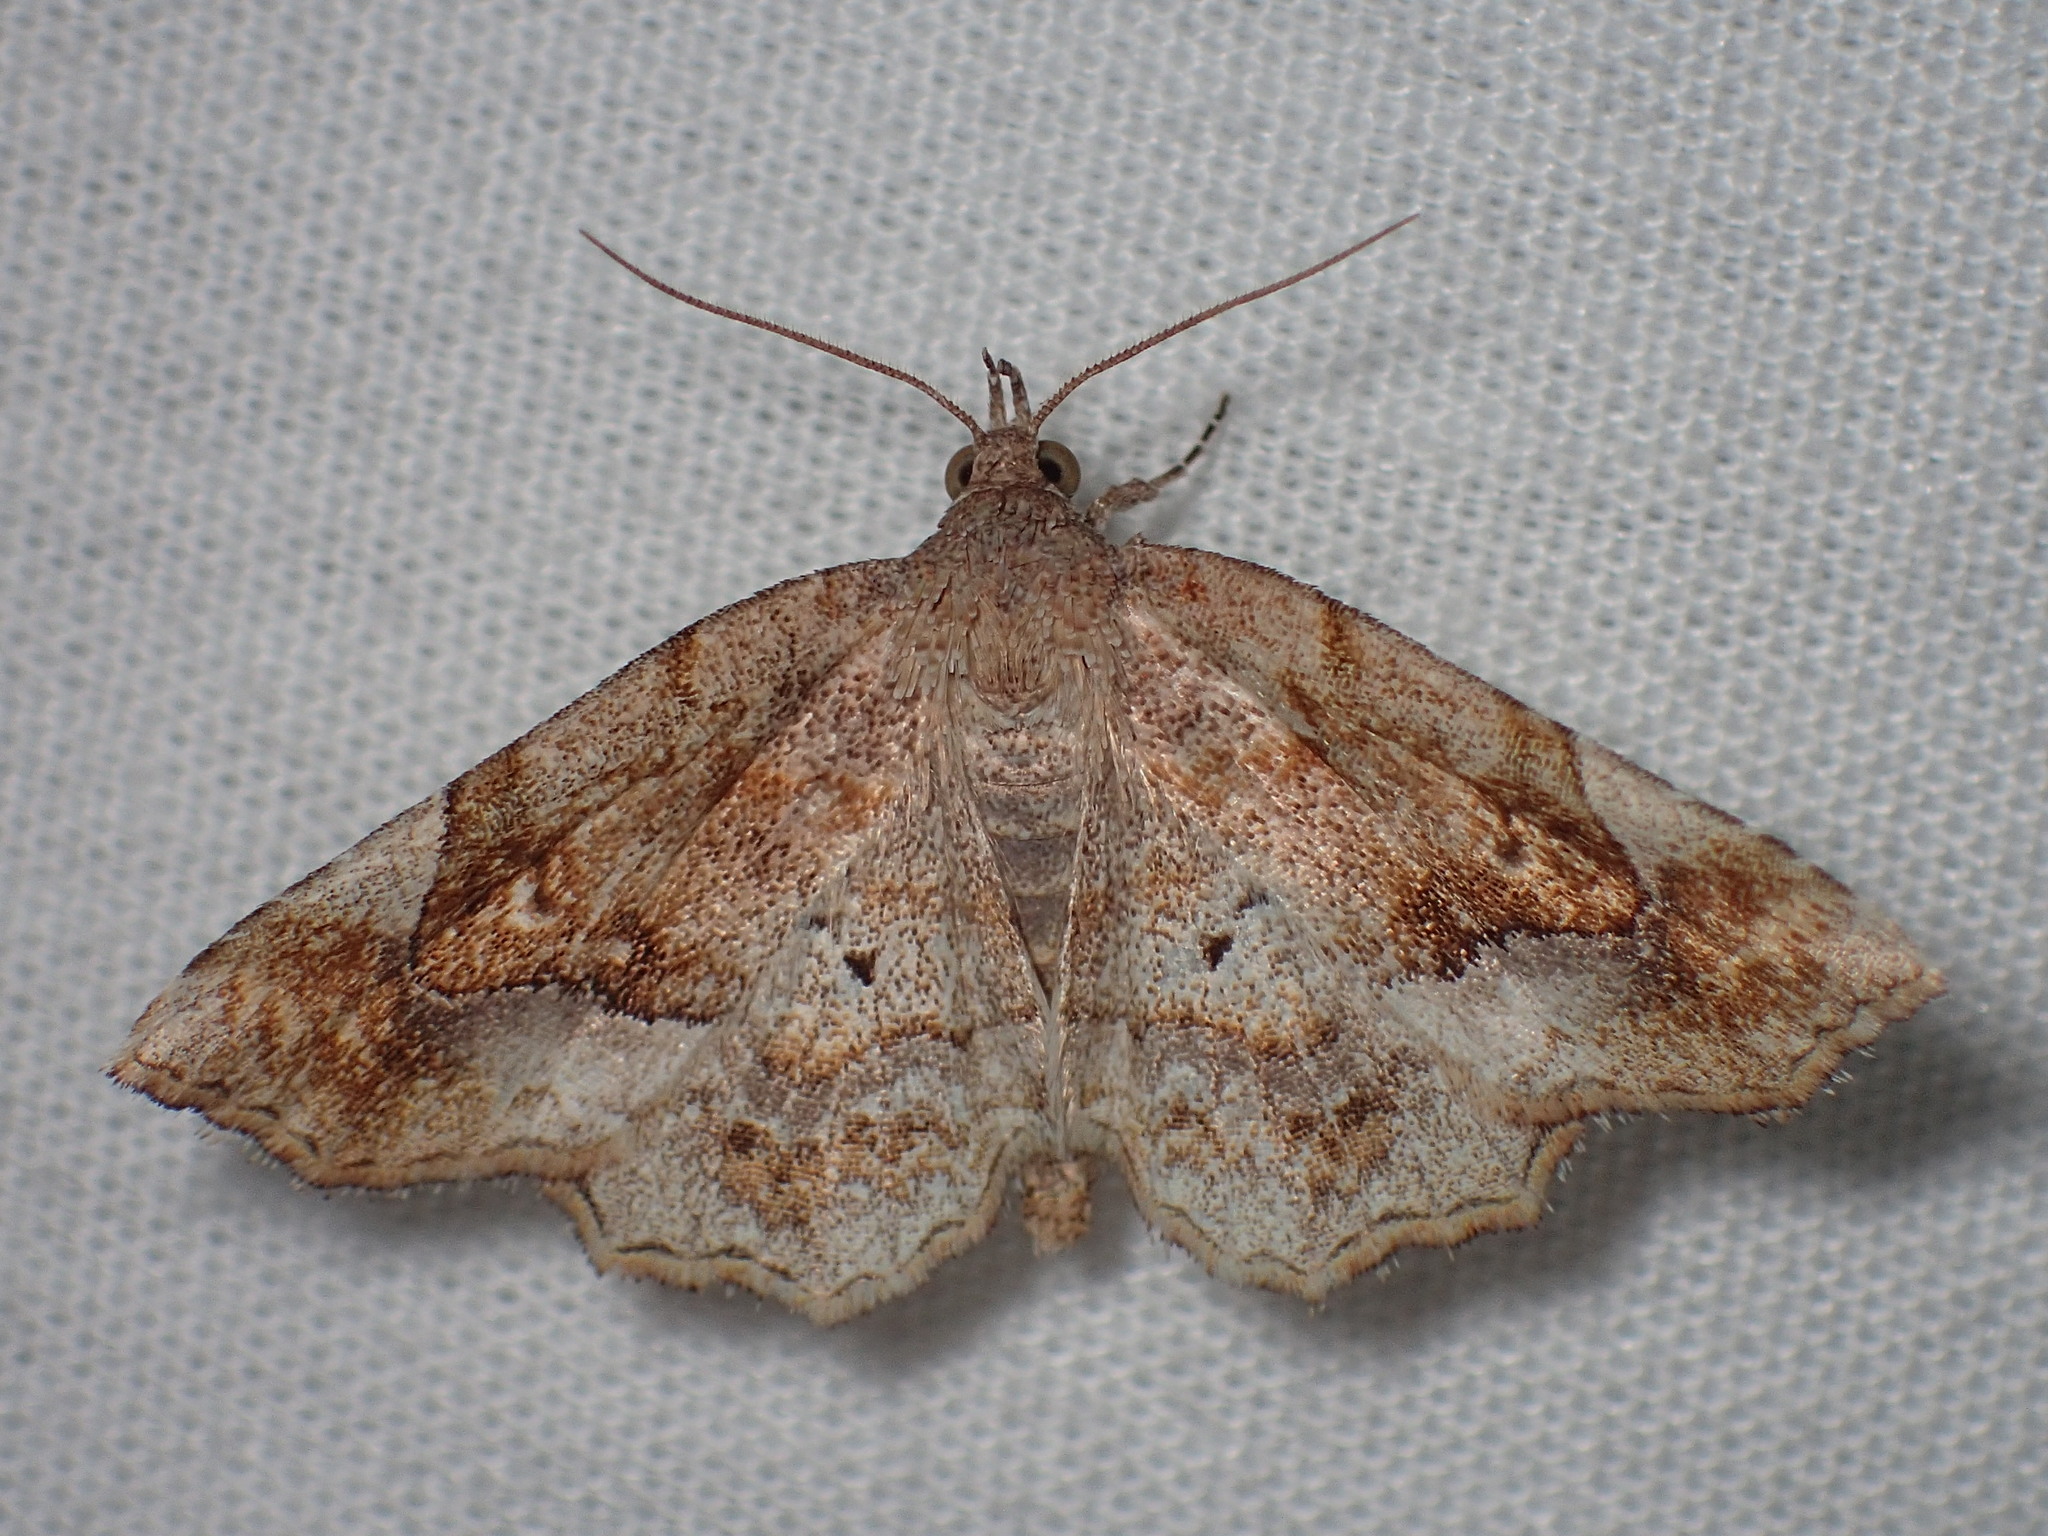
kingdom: Animalia
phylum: Arthropoda
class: Insecta
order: Lepidoptera
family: Erebidae
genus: Pangrapta
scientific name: Pangrapta decoralis
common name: Decorated owlet
